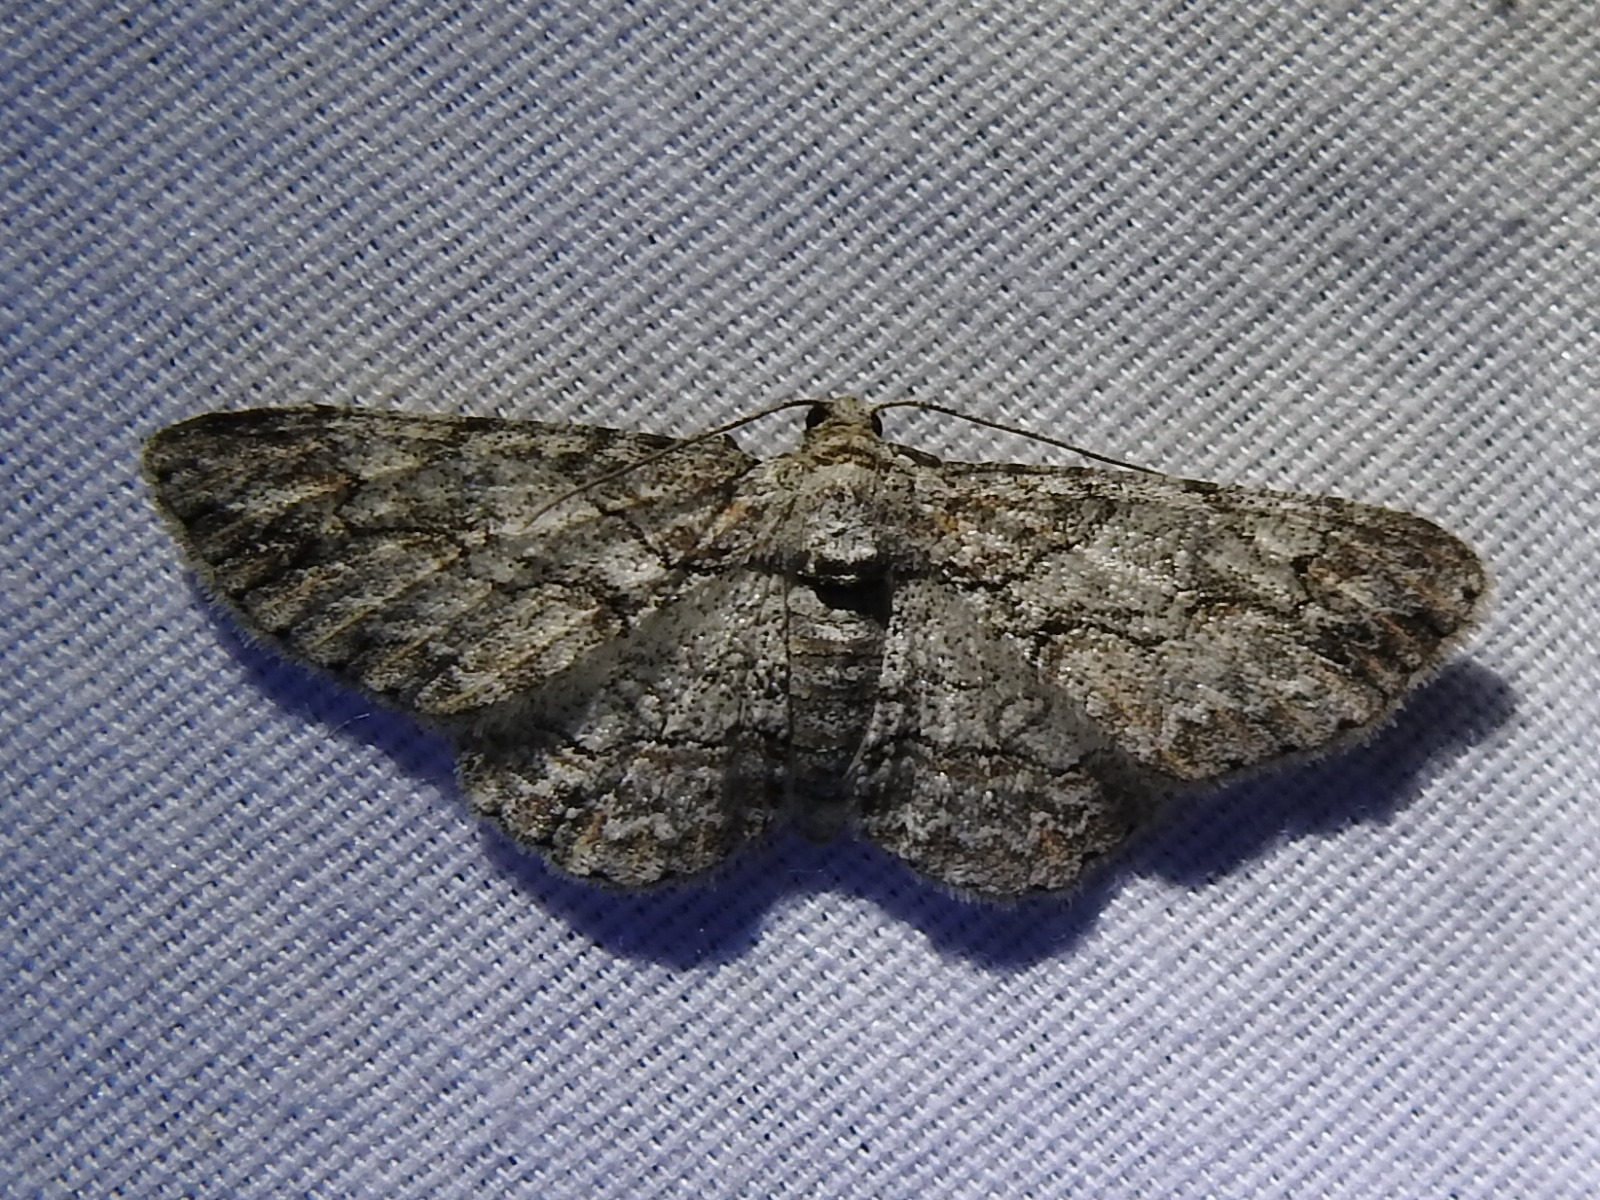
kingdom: Animalia
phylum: Arthropoda
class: Insecta
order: Lepidoptera
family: Geometridae
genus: Iridopsis
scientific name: Iridopsis defectaria
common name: Brown-shaded gray
